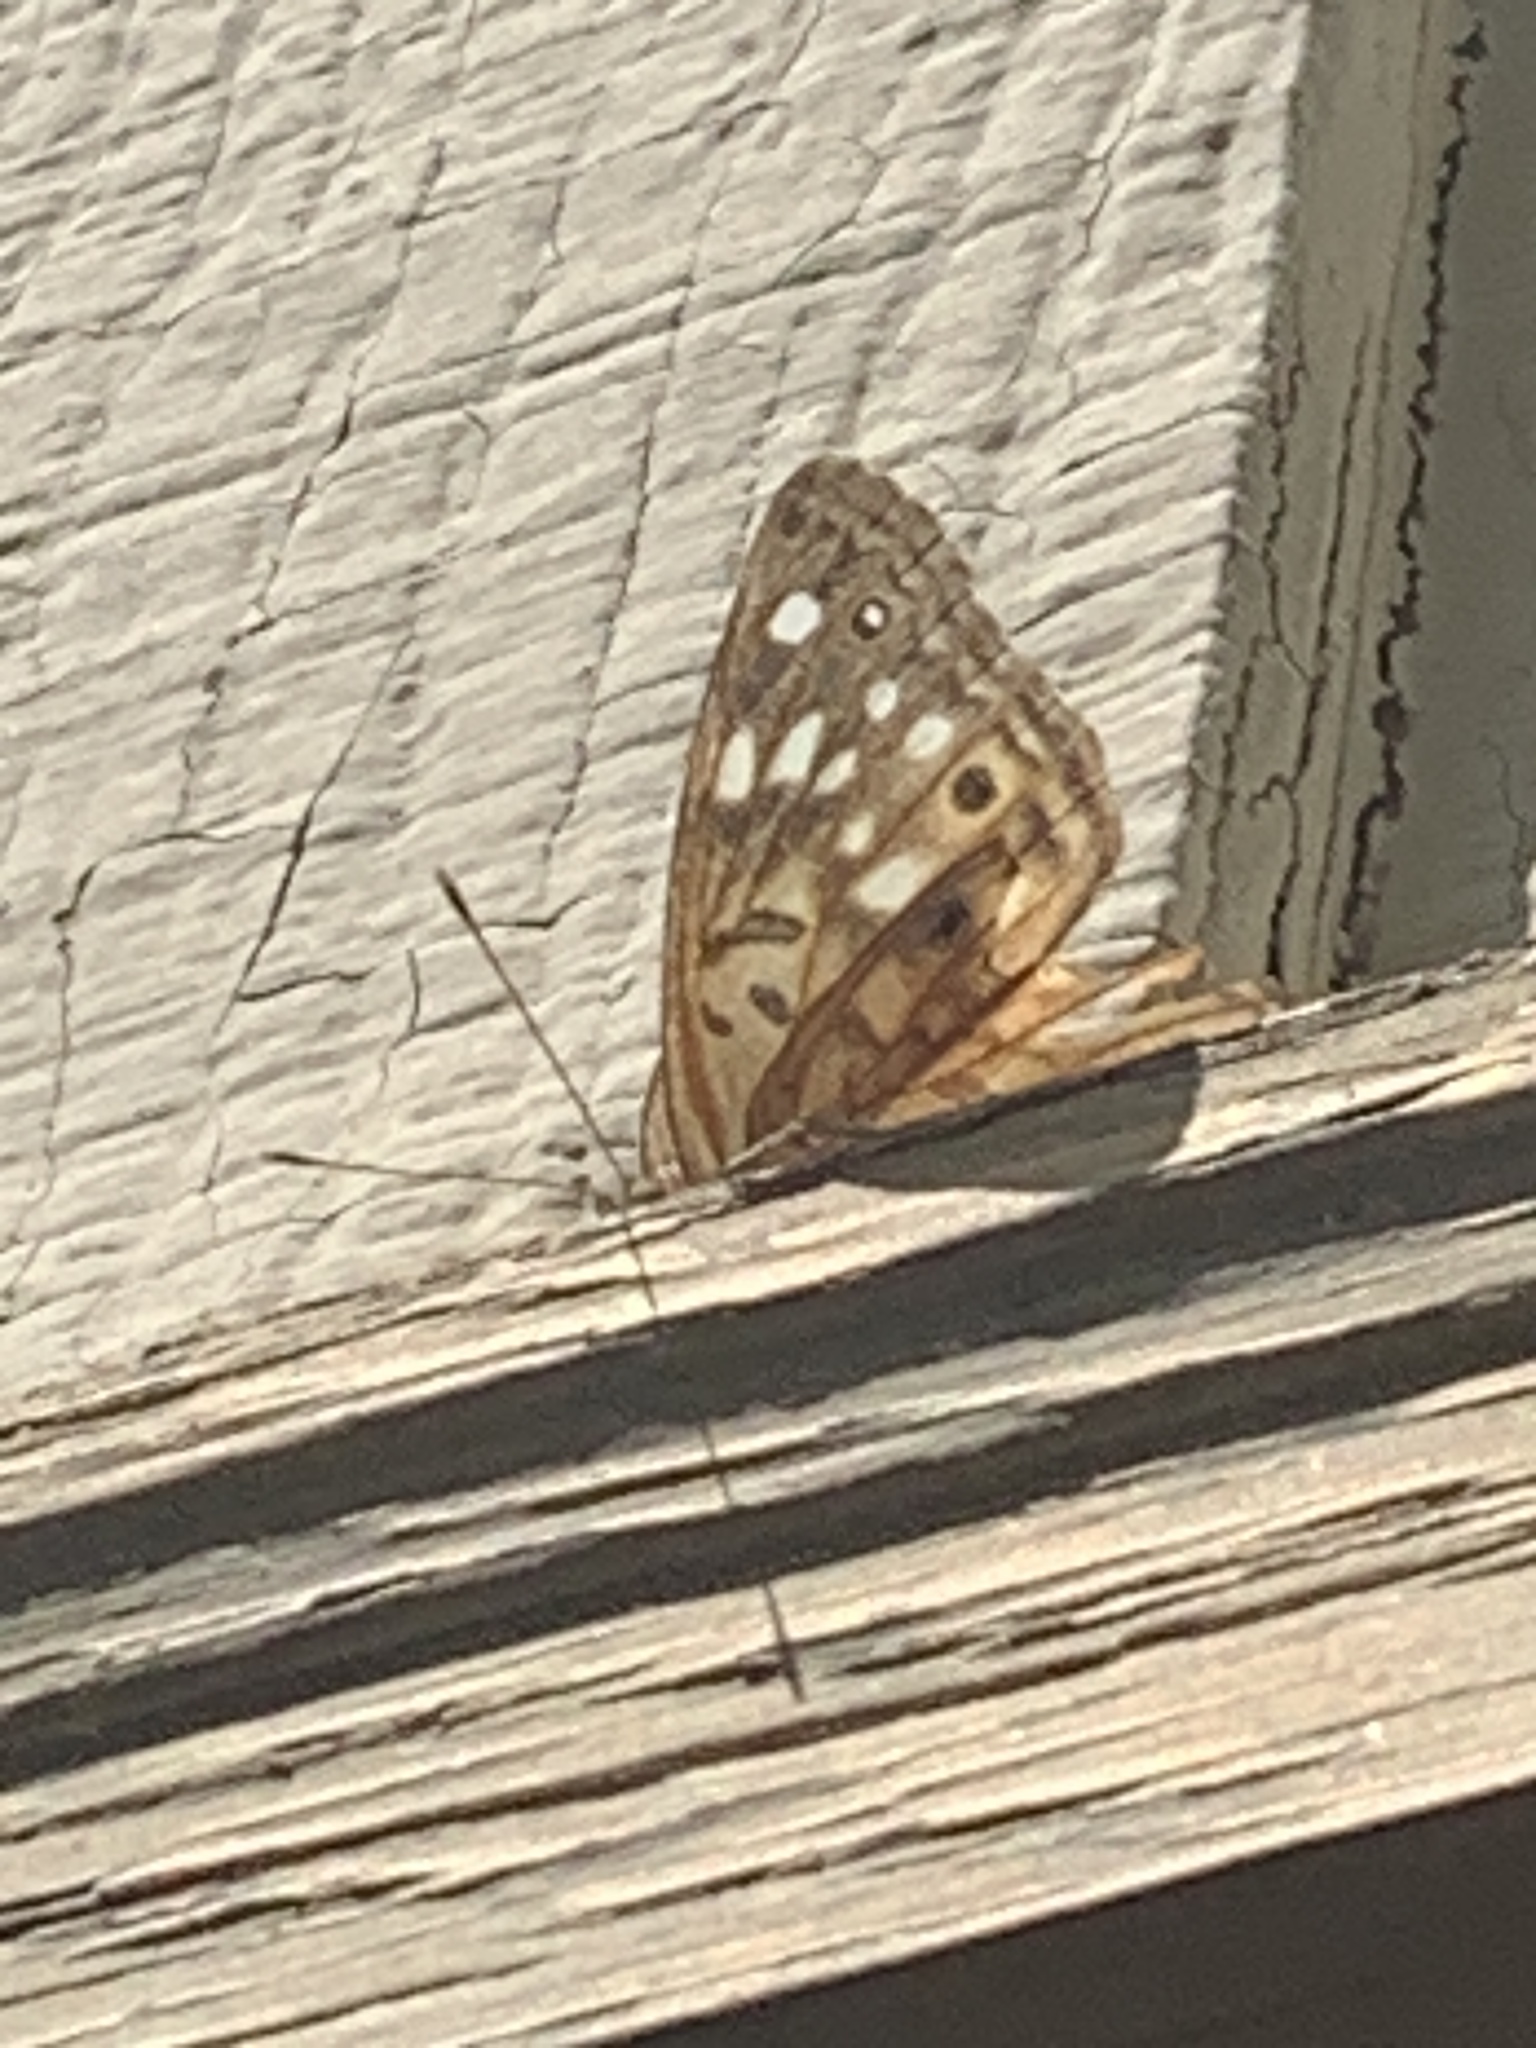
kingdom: Animalia
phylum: Arthropoda
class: Insecta
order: Lepidoptera
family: Nymphalidae
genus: Asterocampa
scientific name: Asterocampa celtis
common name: Hackberry emperor
